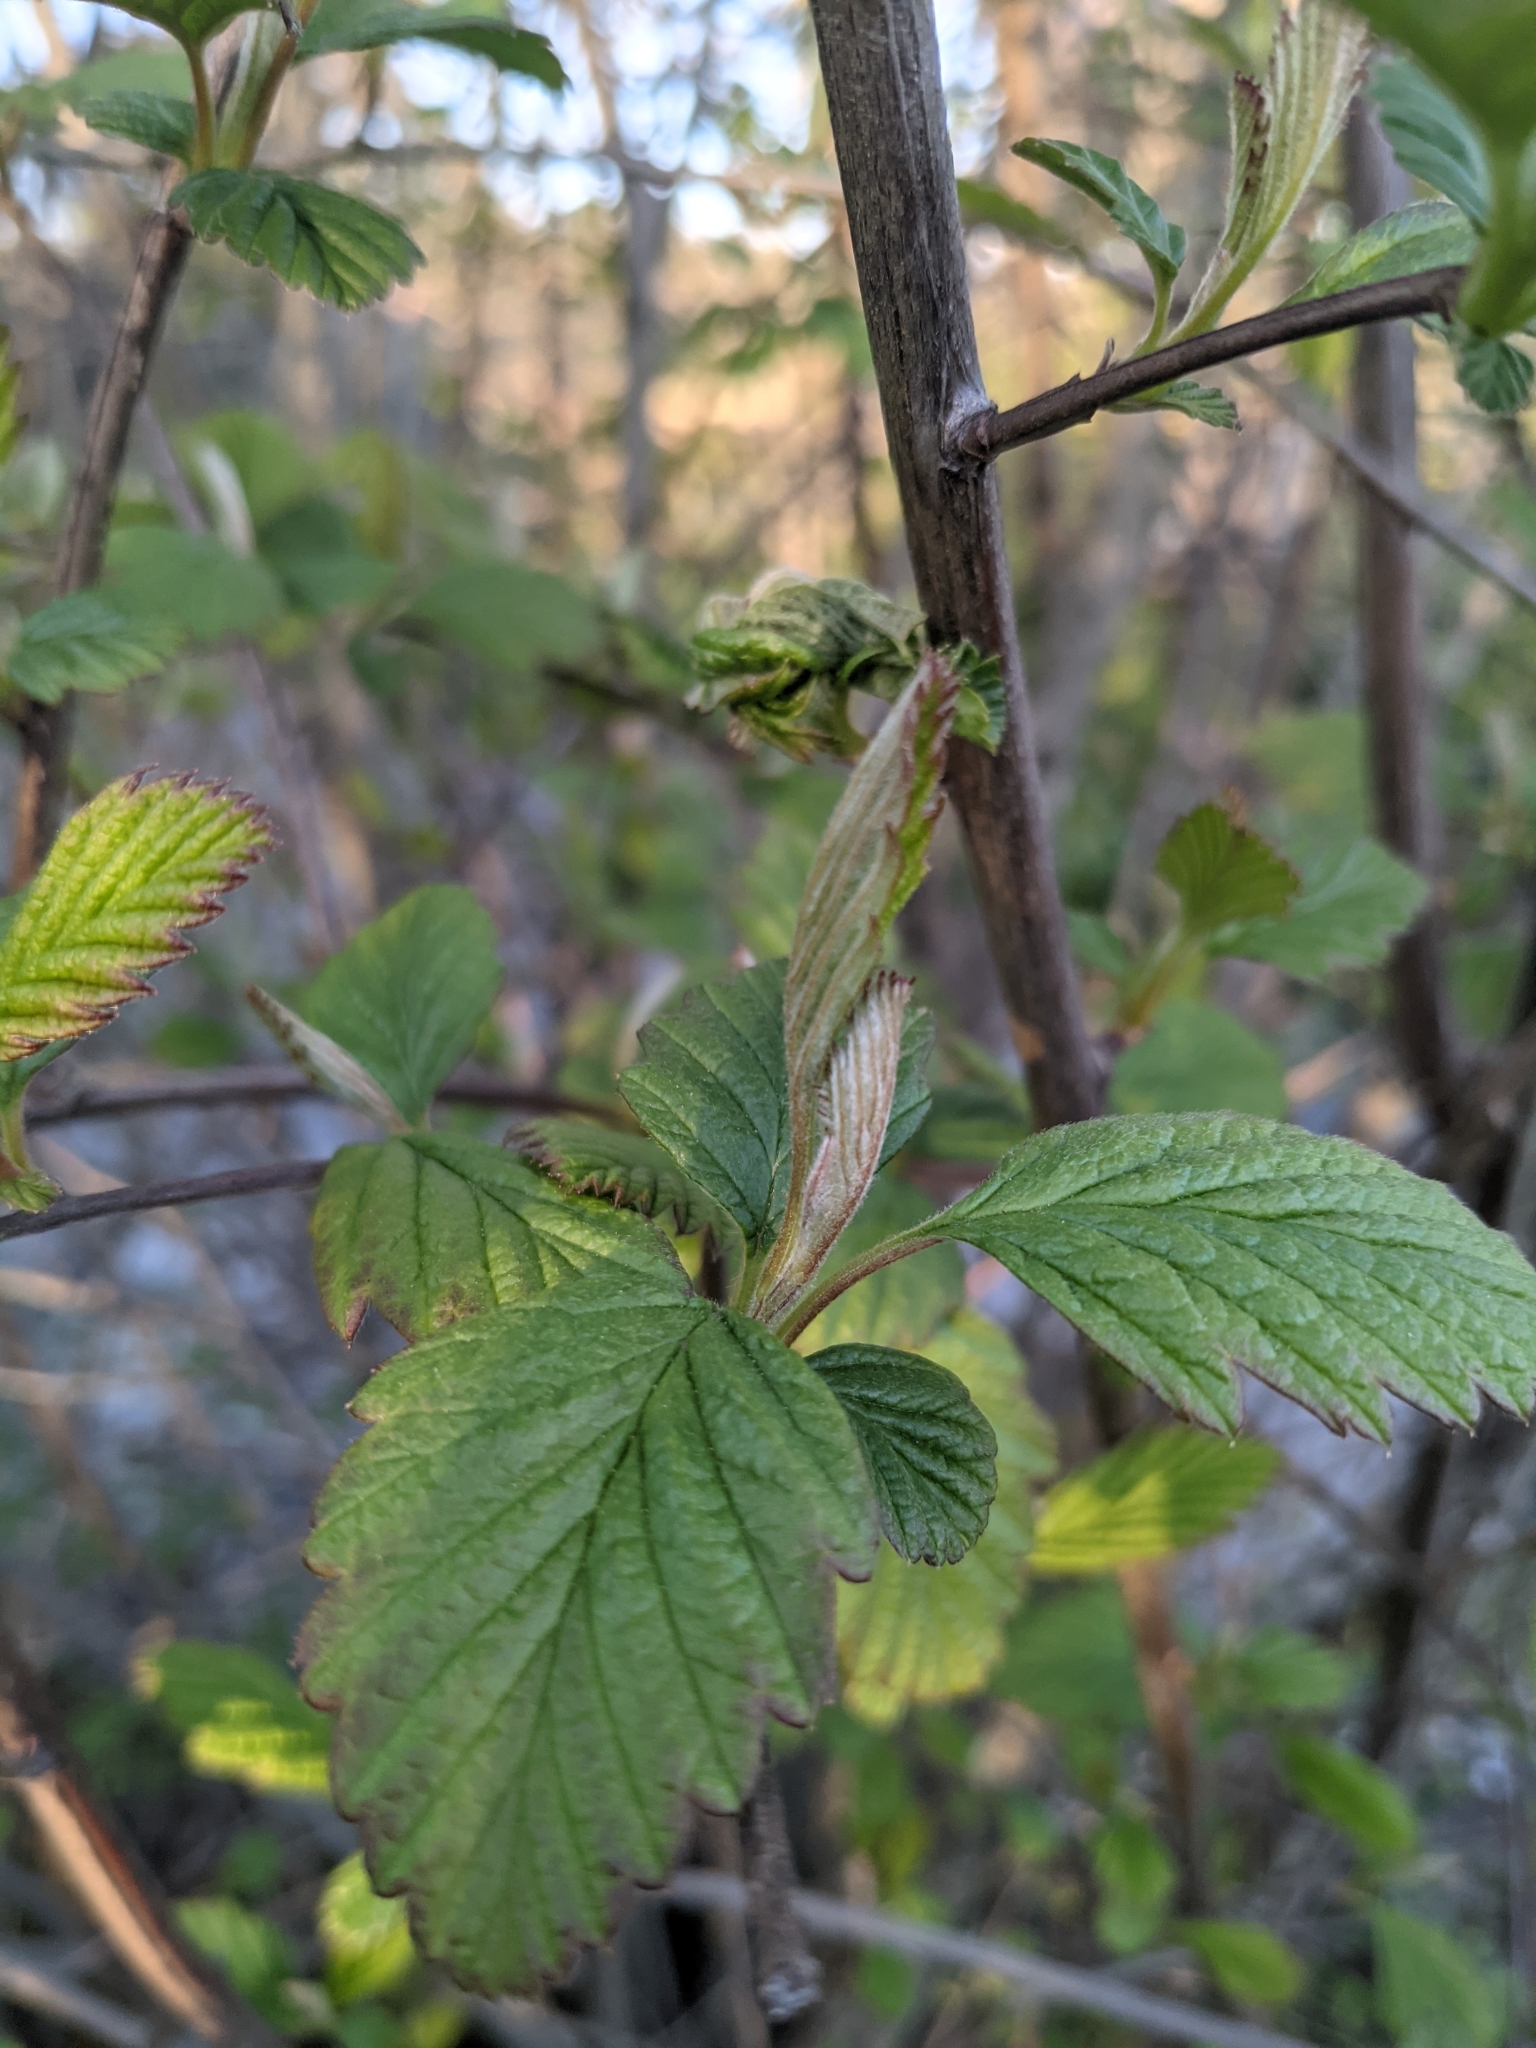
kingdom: Plantae
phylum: Tracheophyta
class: Magnoliopsida
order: Rosales
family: Rosaceae
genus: Holodiscus
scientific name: Holodiscus discolor
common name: Oceanspray
